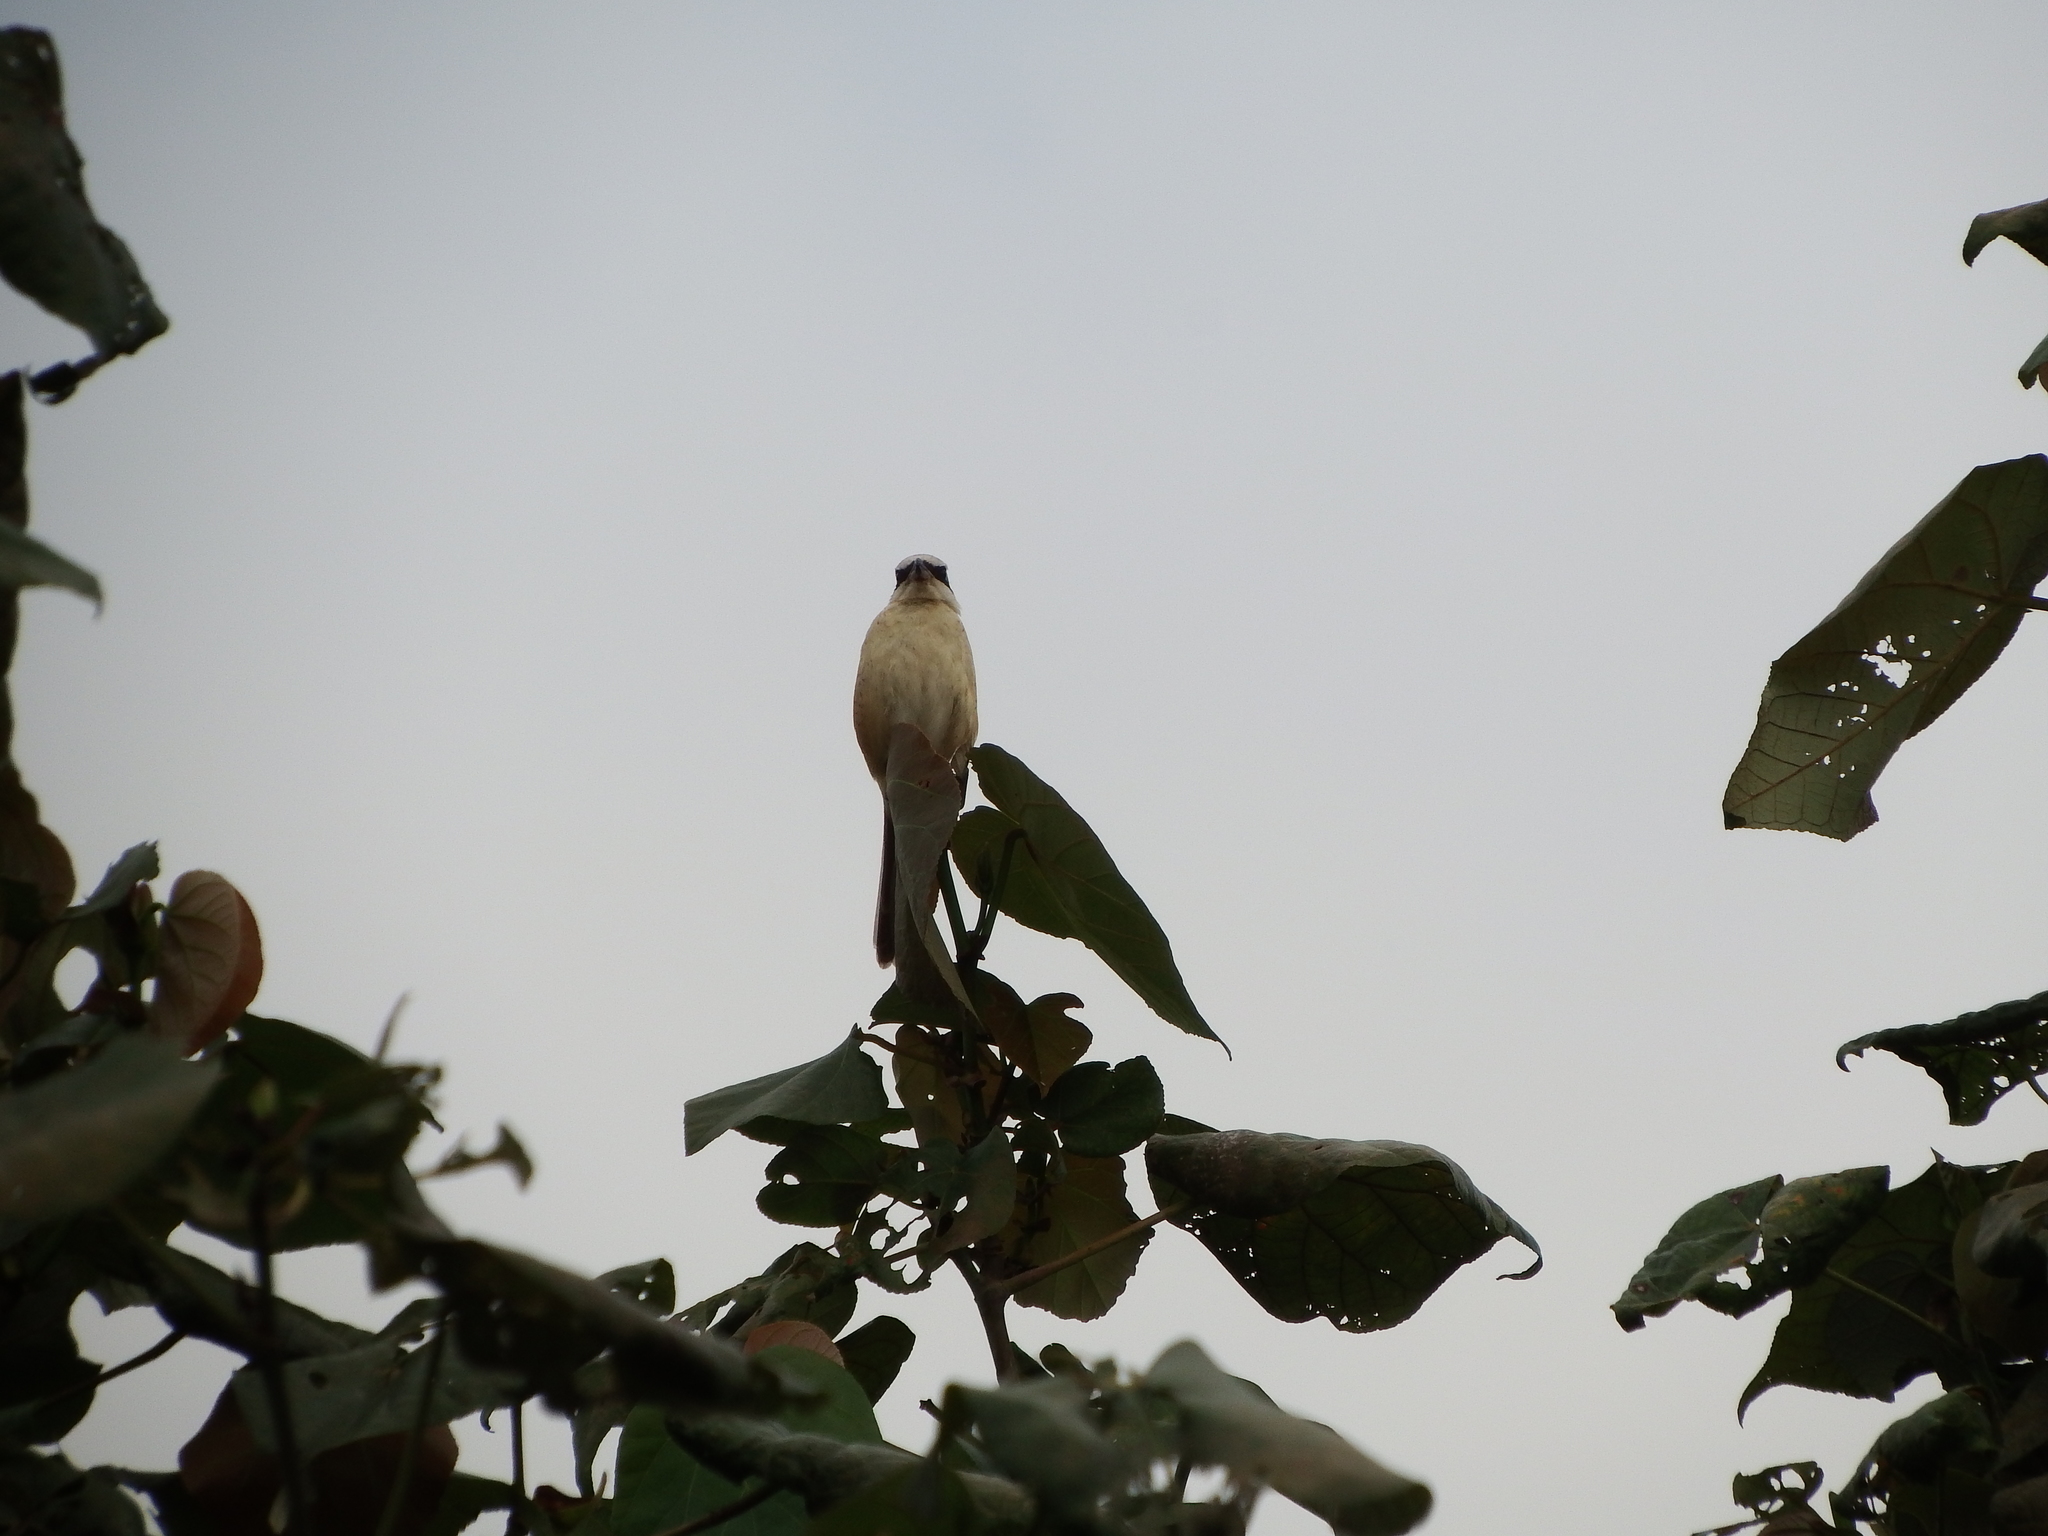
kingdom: Animalia
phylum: Chordata
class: Aves
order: Passeriformes
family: Laniidae
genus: Lanius
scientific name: Lanius cristatus
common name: Brown shrike
